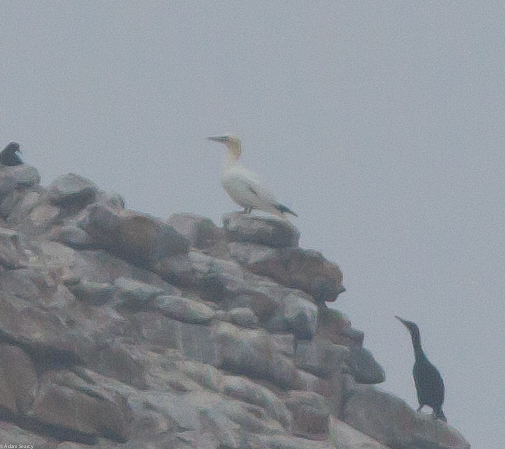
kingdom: Animalia
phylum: Chordata
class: Aves
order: Suliformes
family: Sulidae
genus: Morus
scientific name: Morus bassanus
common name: Northern gannet
